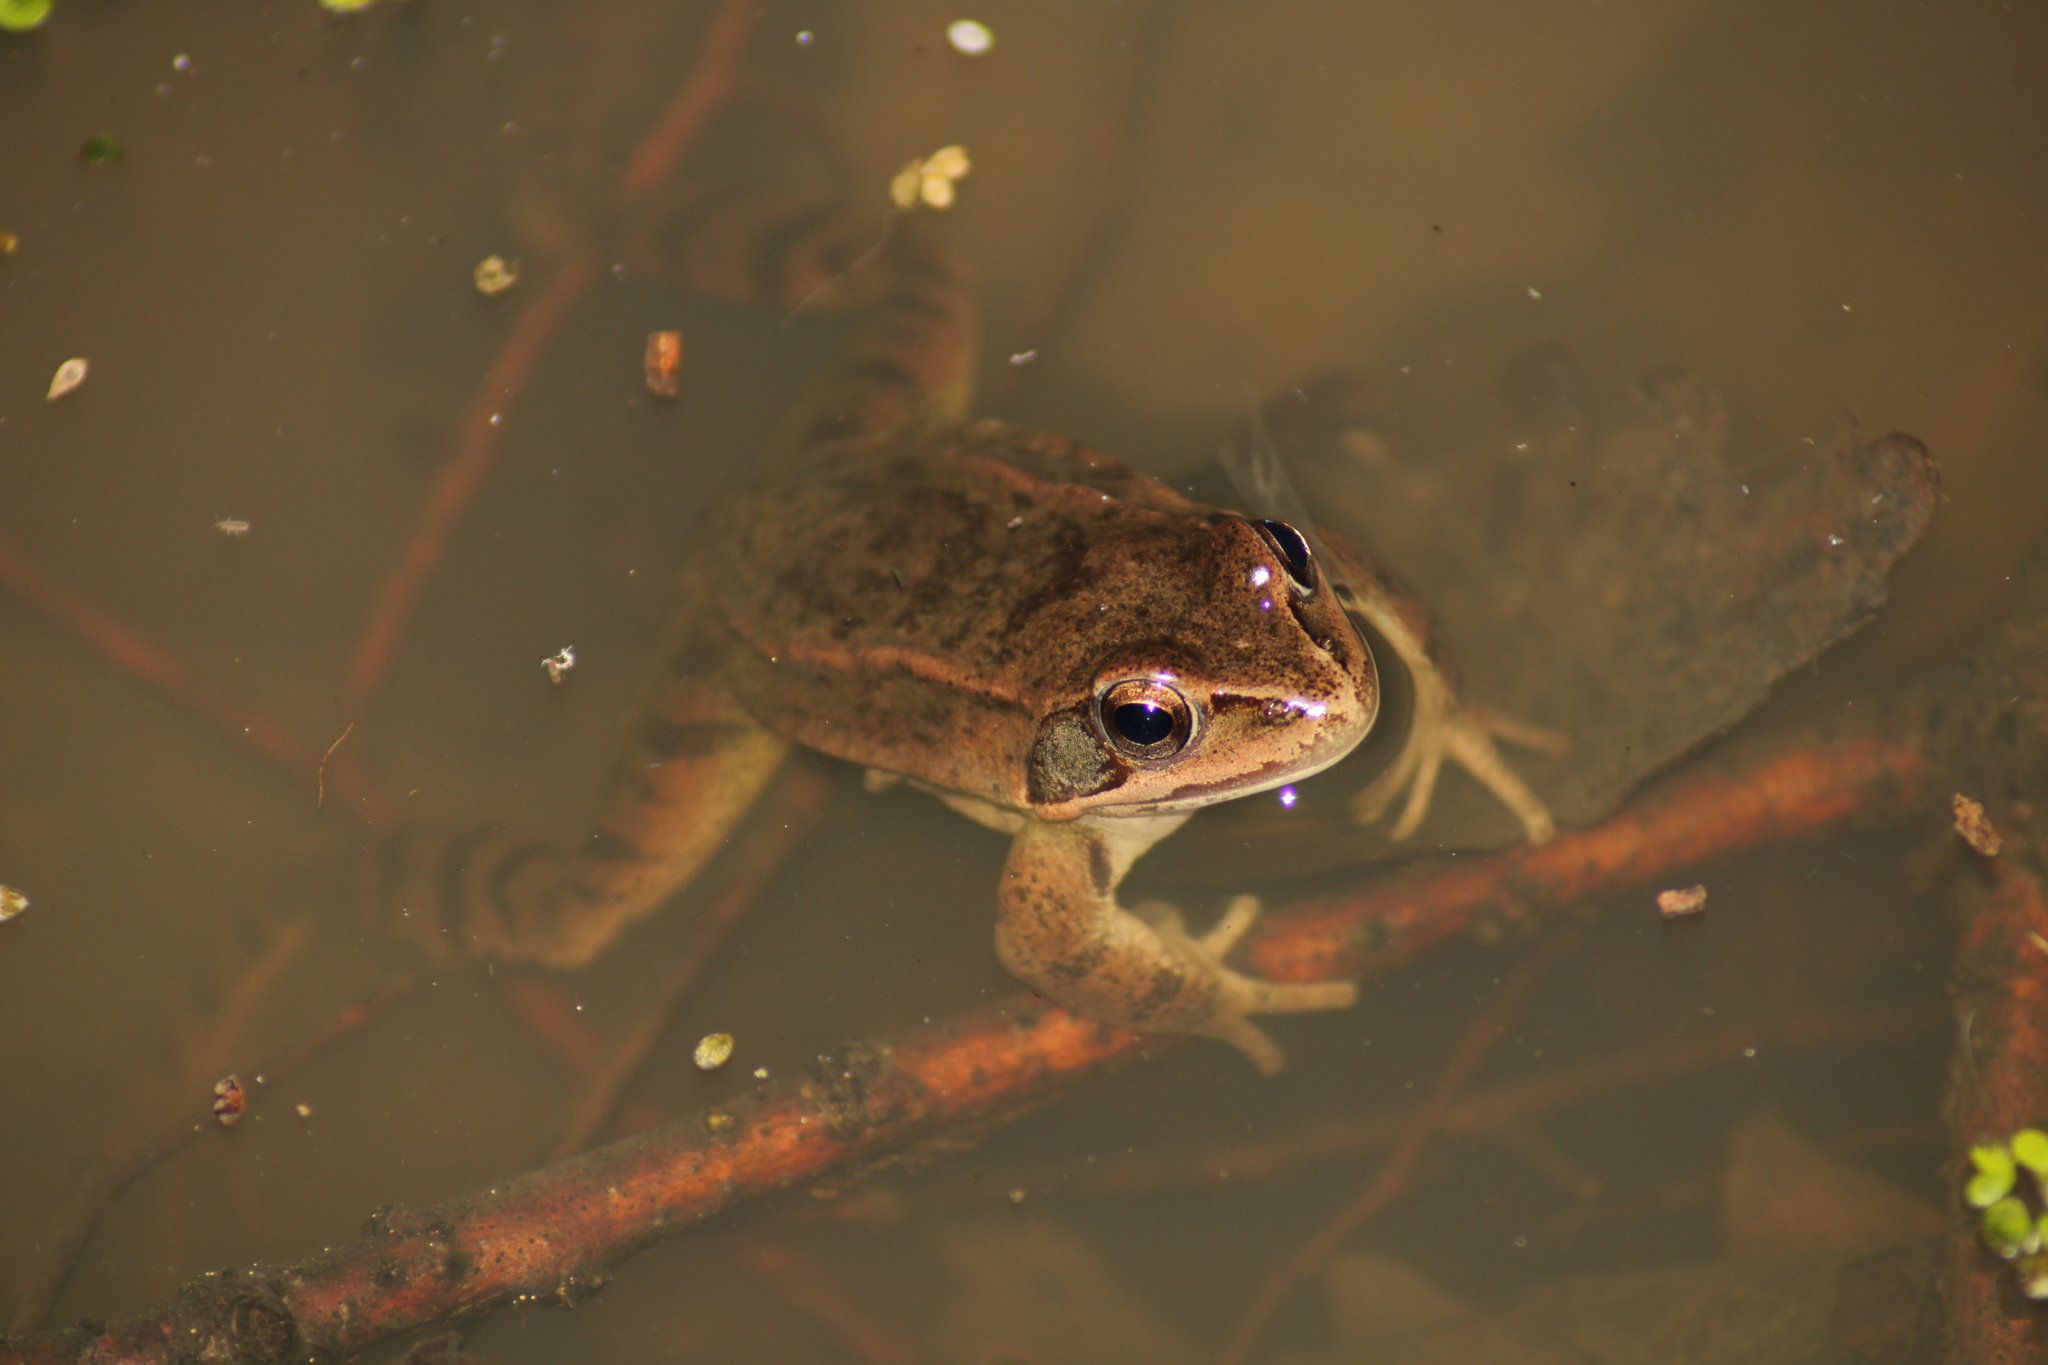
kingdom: Animalia
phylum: Chordata
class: Amphibia
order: Anura
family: Ranidae
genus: Rana
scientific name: Rana dalmatina
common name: Agile frog
